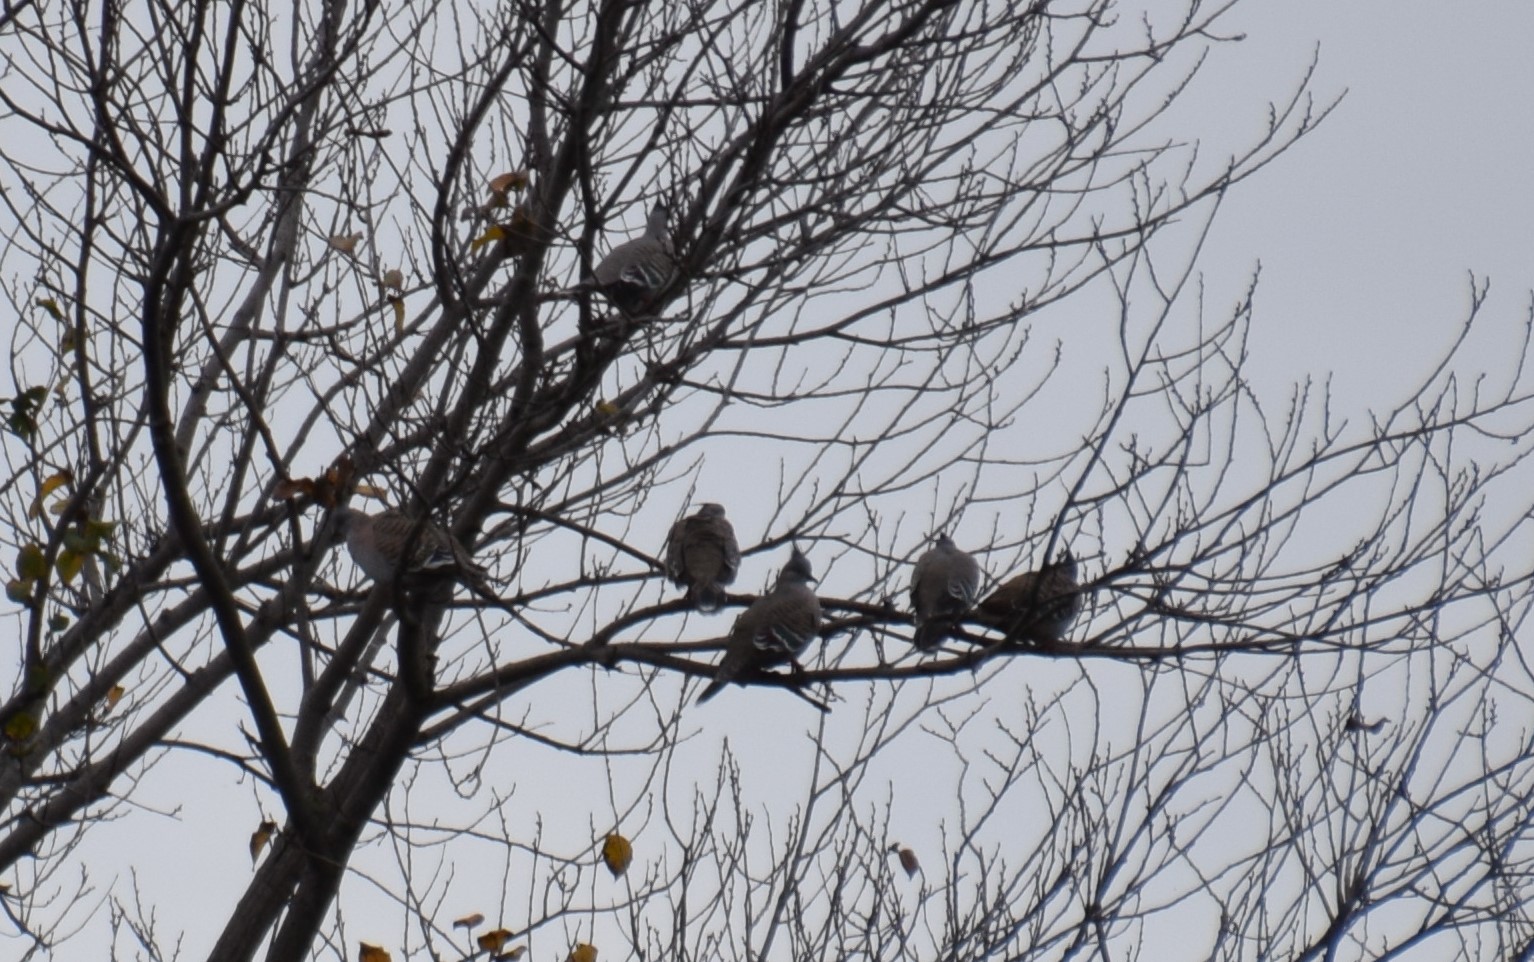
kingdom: Animalia
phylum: Chordata
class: Aves
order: Columbiformes
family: Columbidae
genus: Ocyphaps
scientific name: Ocyphaps lophotes
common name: Crested pigeon
